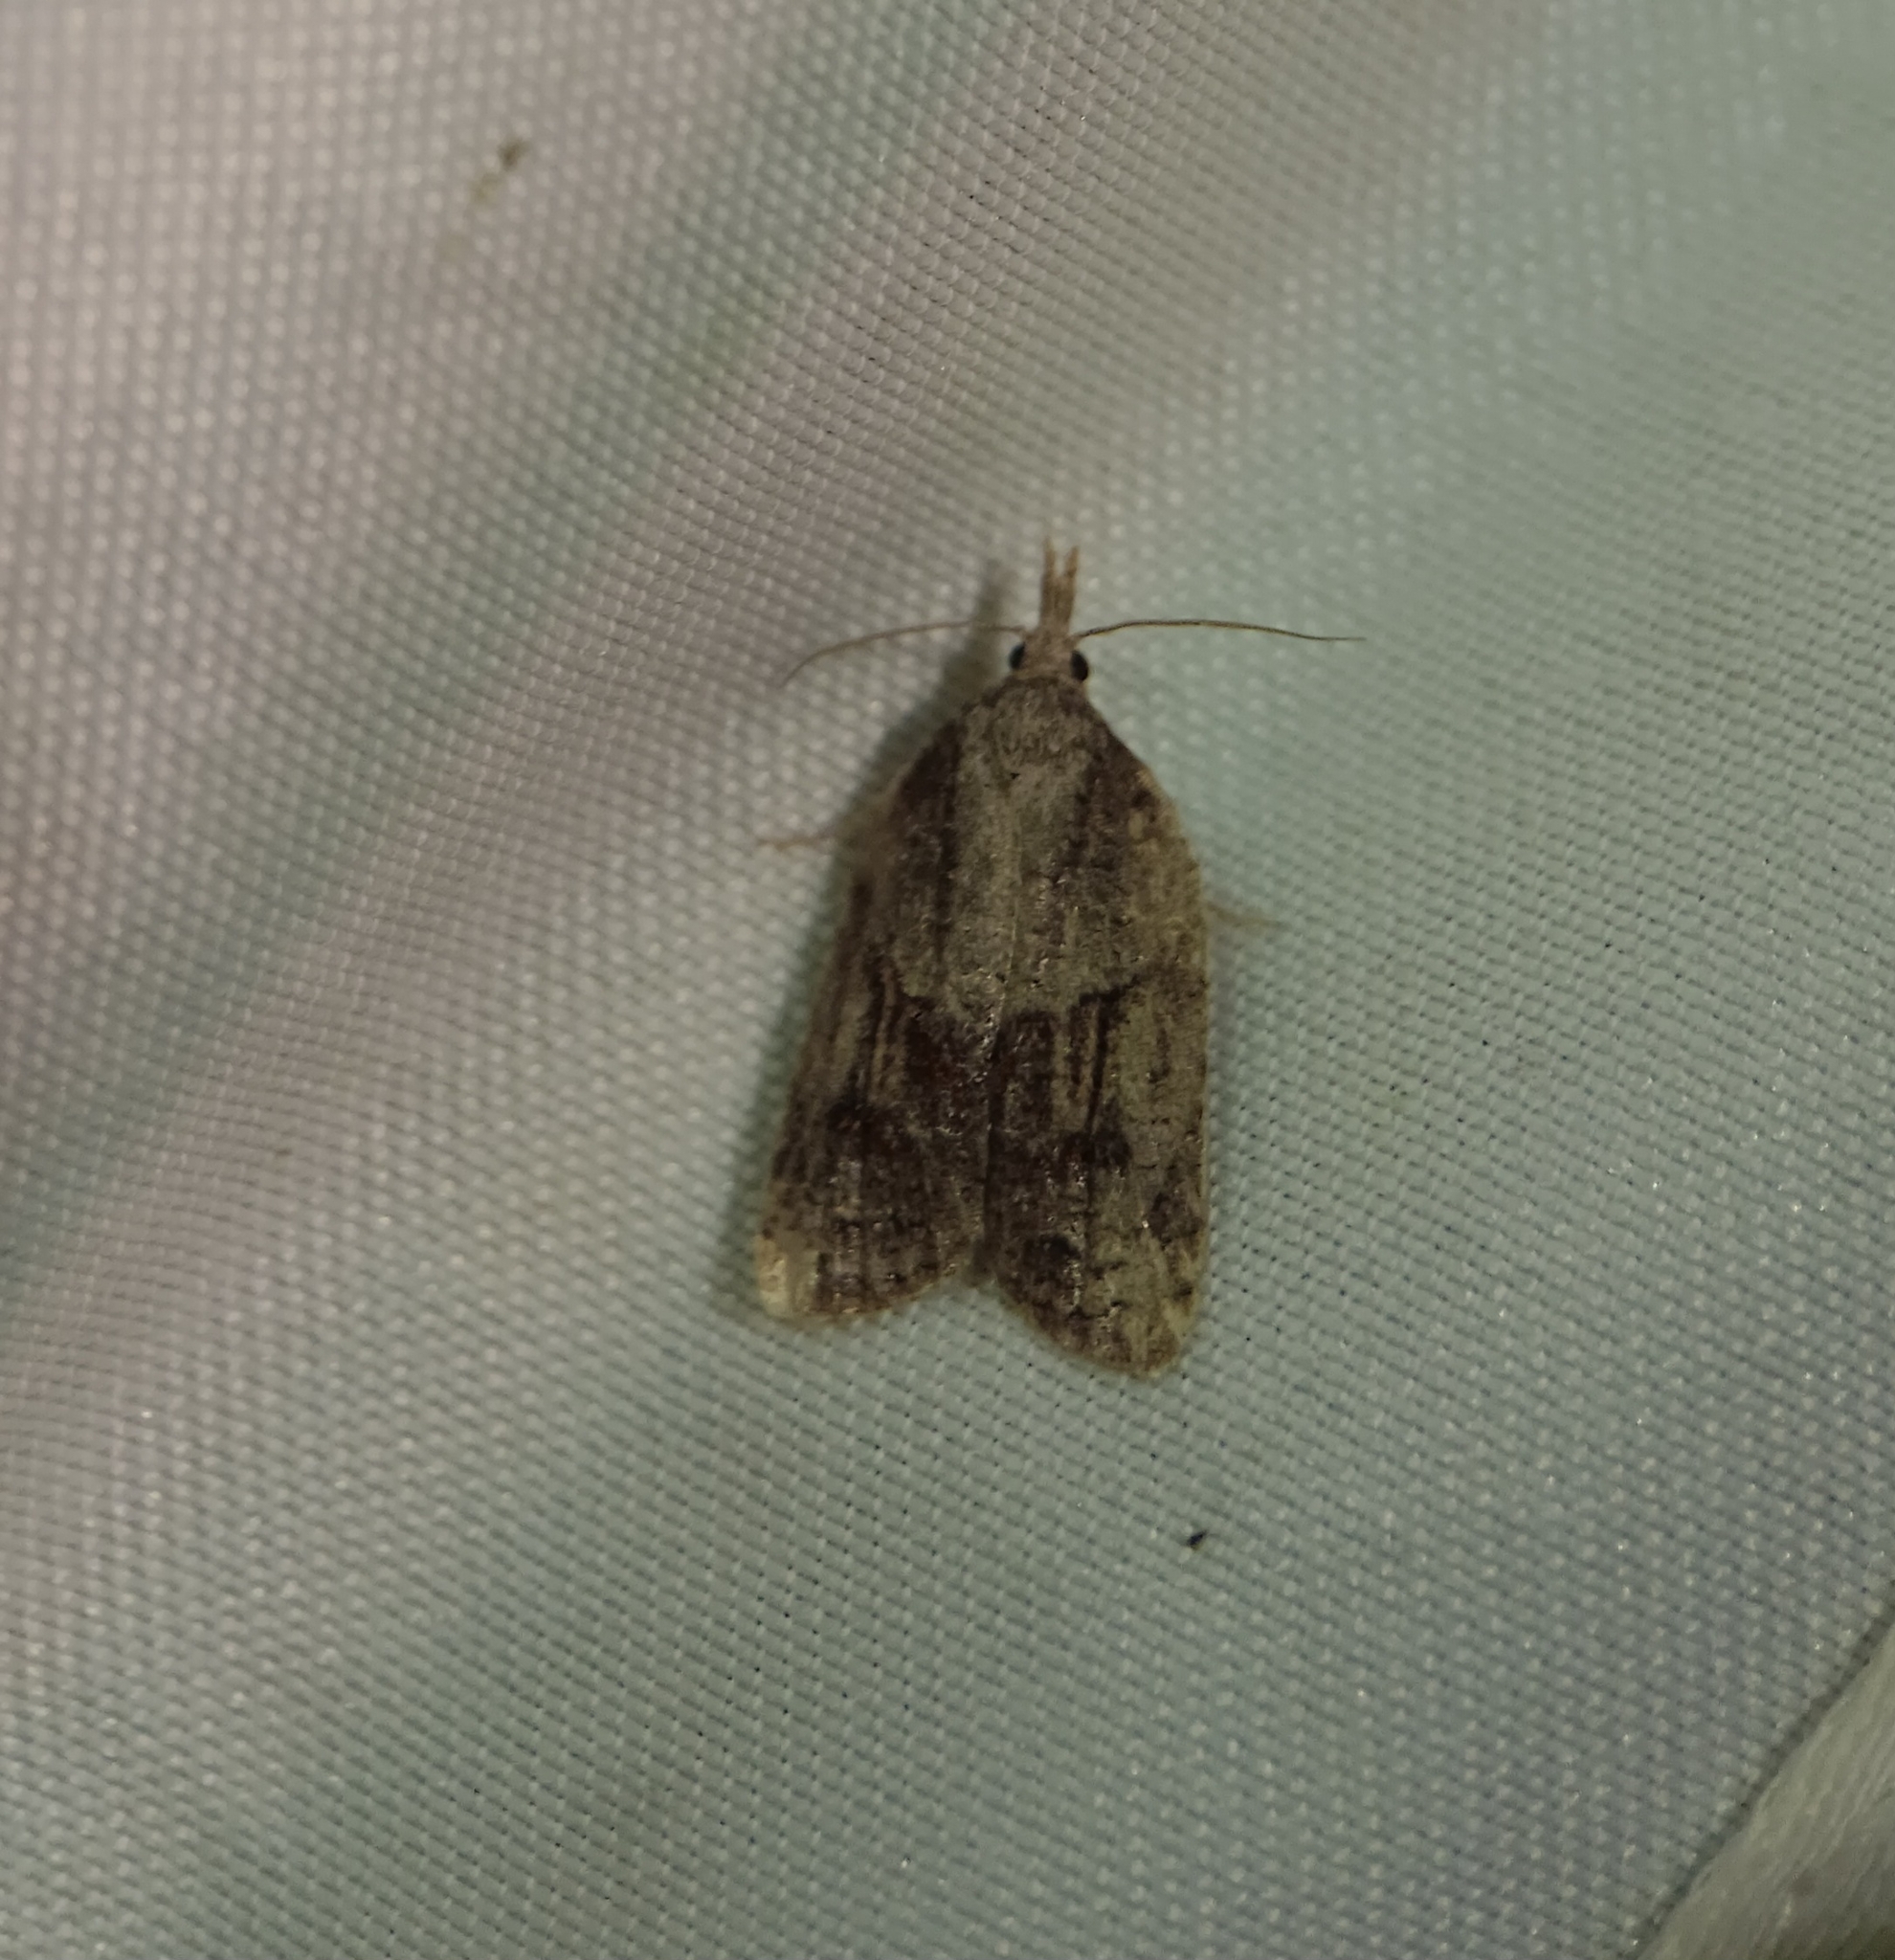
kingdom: Animalia
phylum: Arthropoda
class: Insecta
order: Lepidoptera
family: Tortricidae
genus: Platynota
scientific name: Platynota idaeusalis
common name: Tufted apple bud moth
